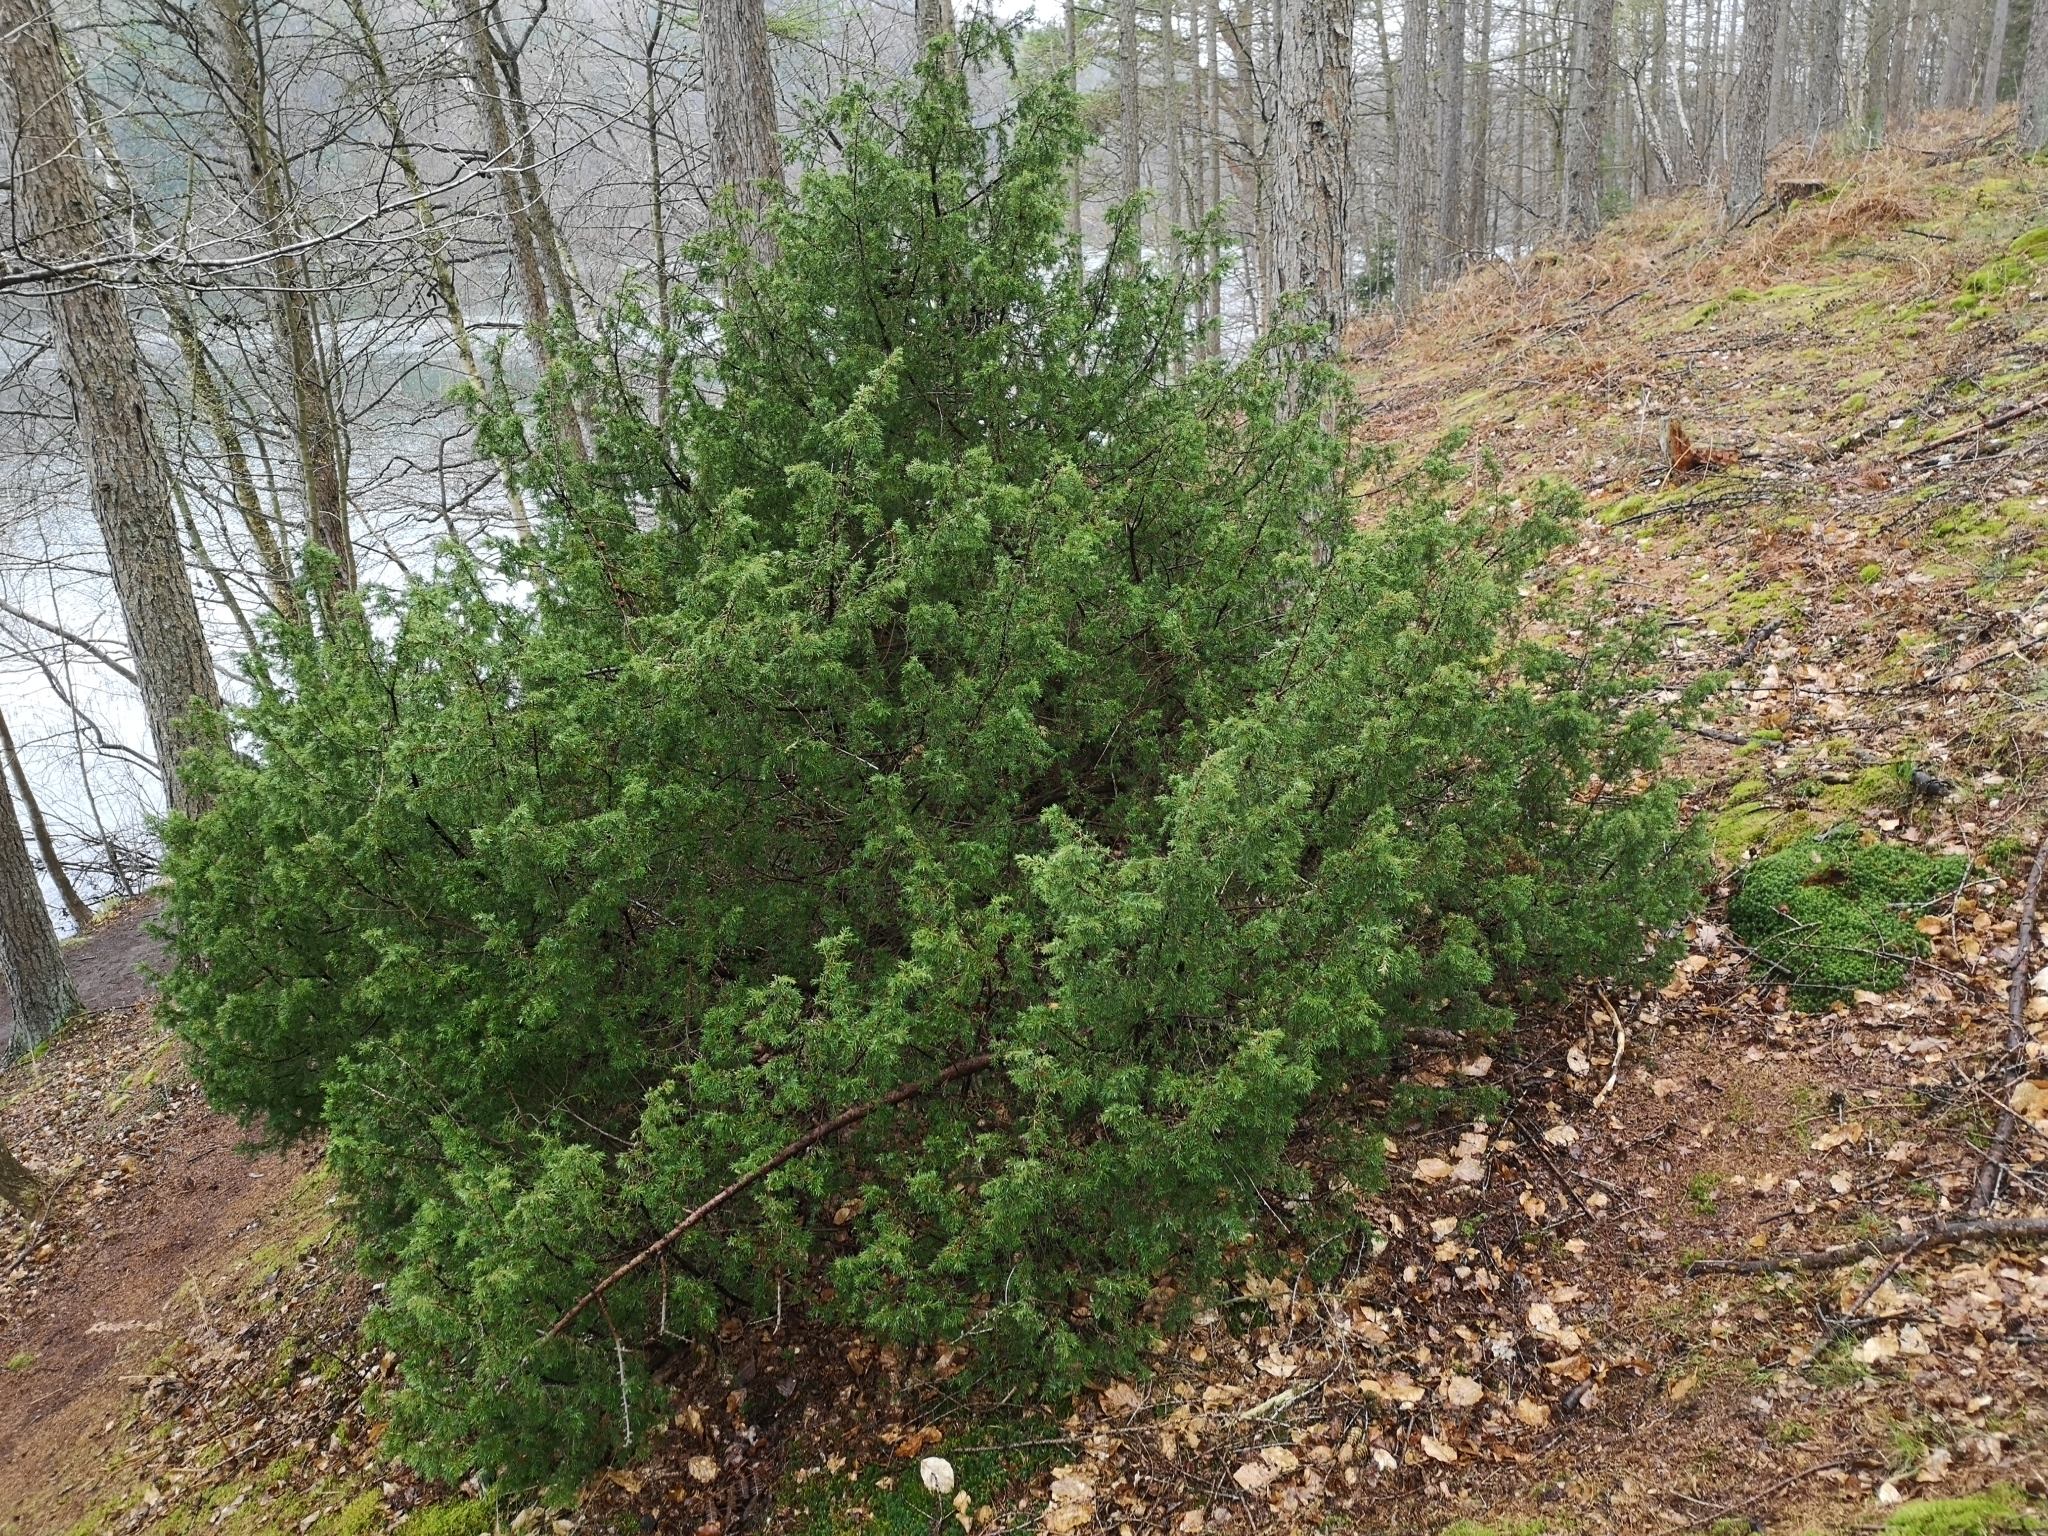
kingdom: Plantae
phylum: Tracheophyta
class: Pinopsida
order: Pinales
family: Cupressaceae
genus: Juniperus
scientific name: Juniperus communis
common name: Common juniper
